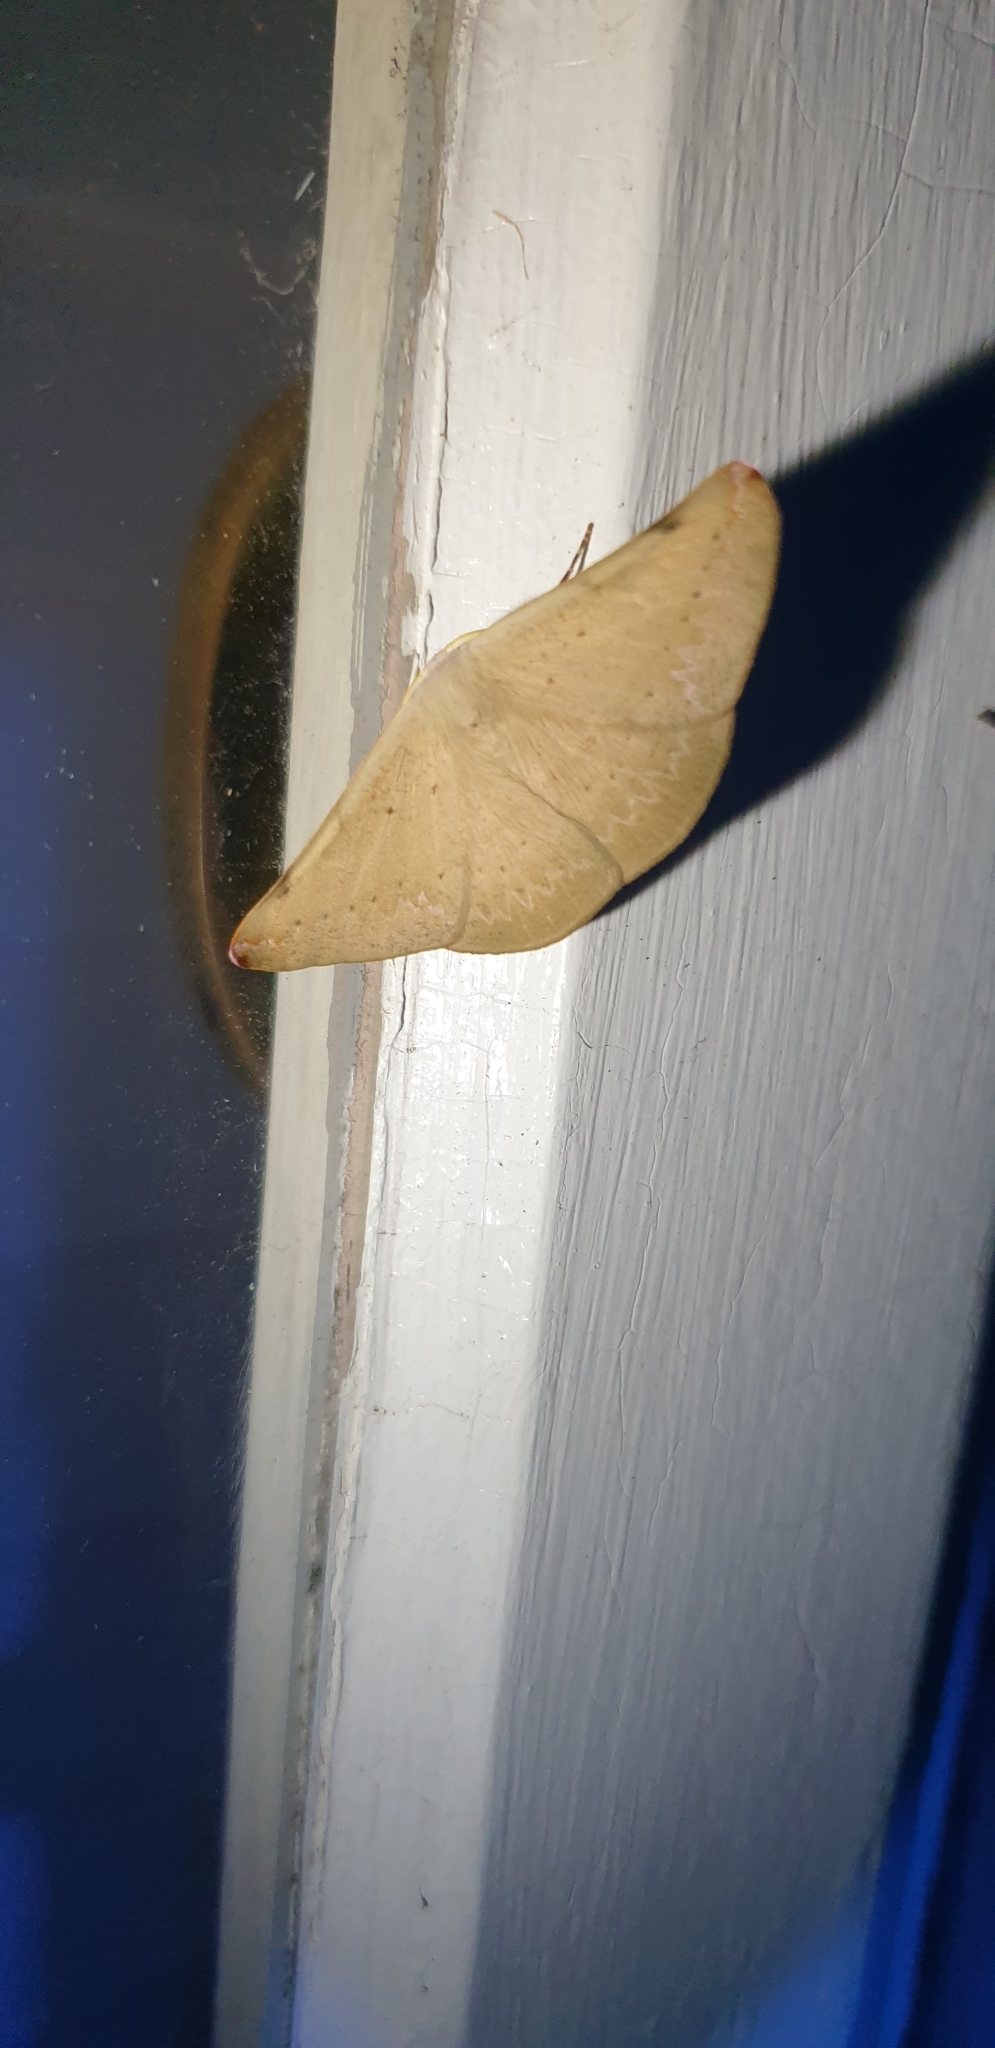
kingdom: Animalia
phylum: Arthropoda
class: Insecta
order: Lepidoptera
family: Geometridae
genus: Onycodes
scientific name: Onycodes rubra
